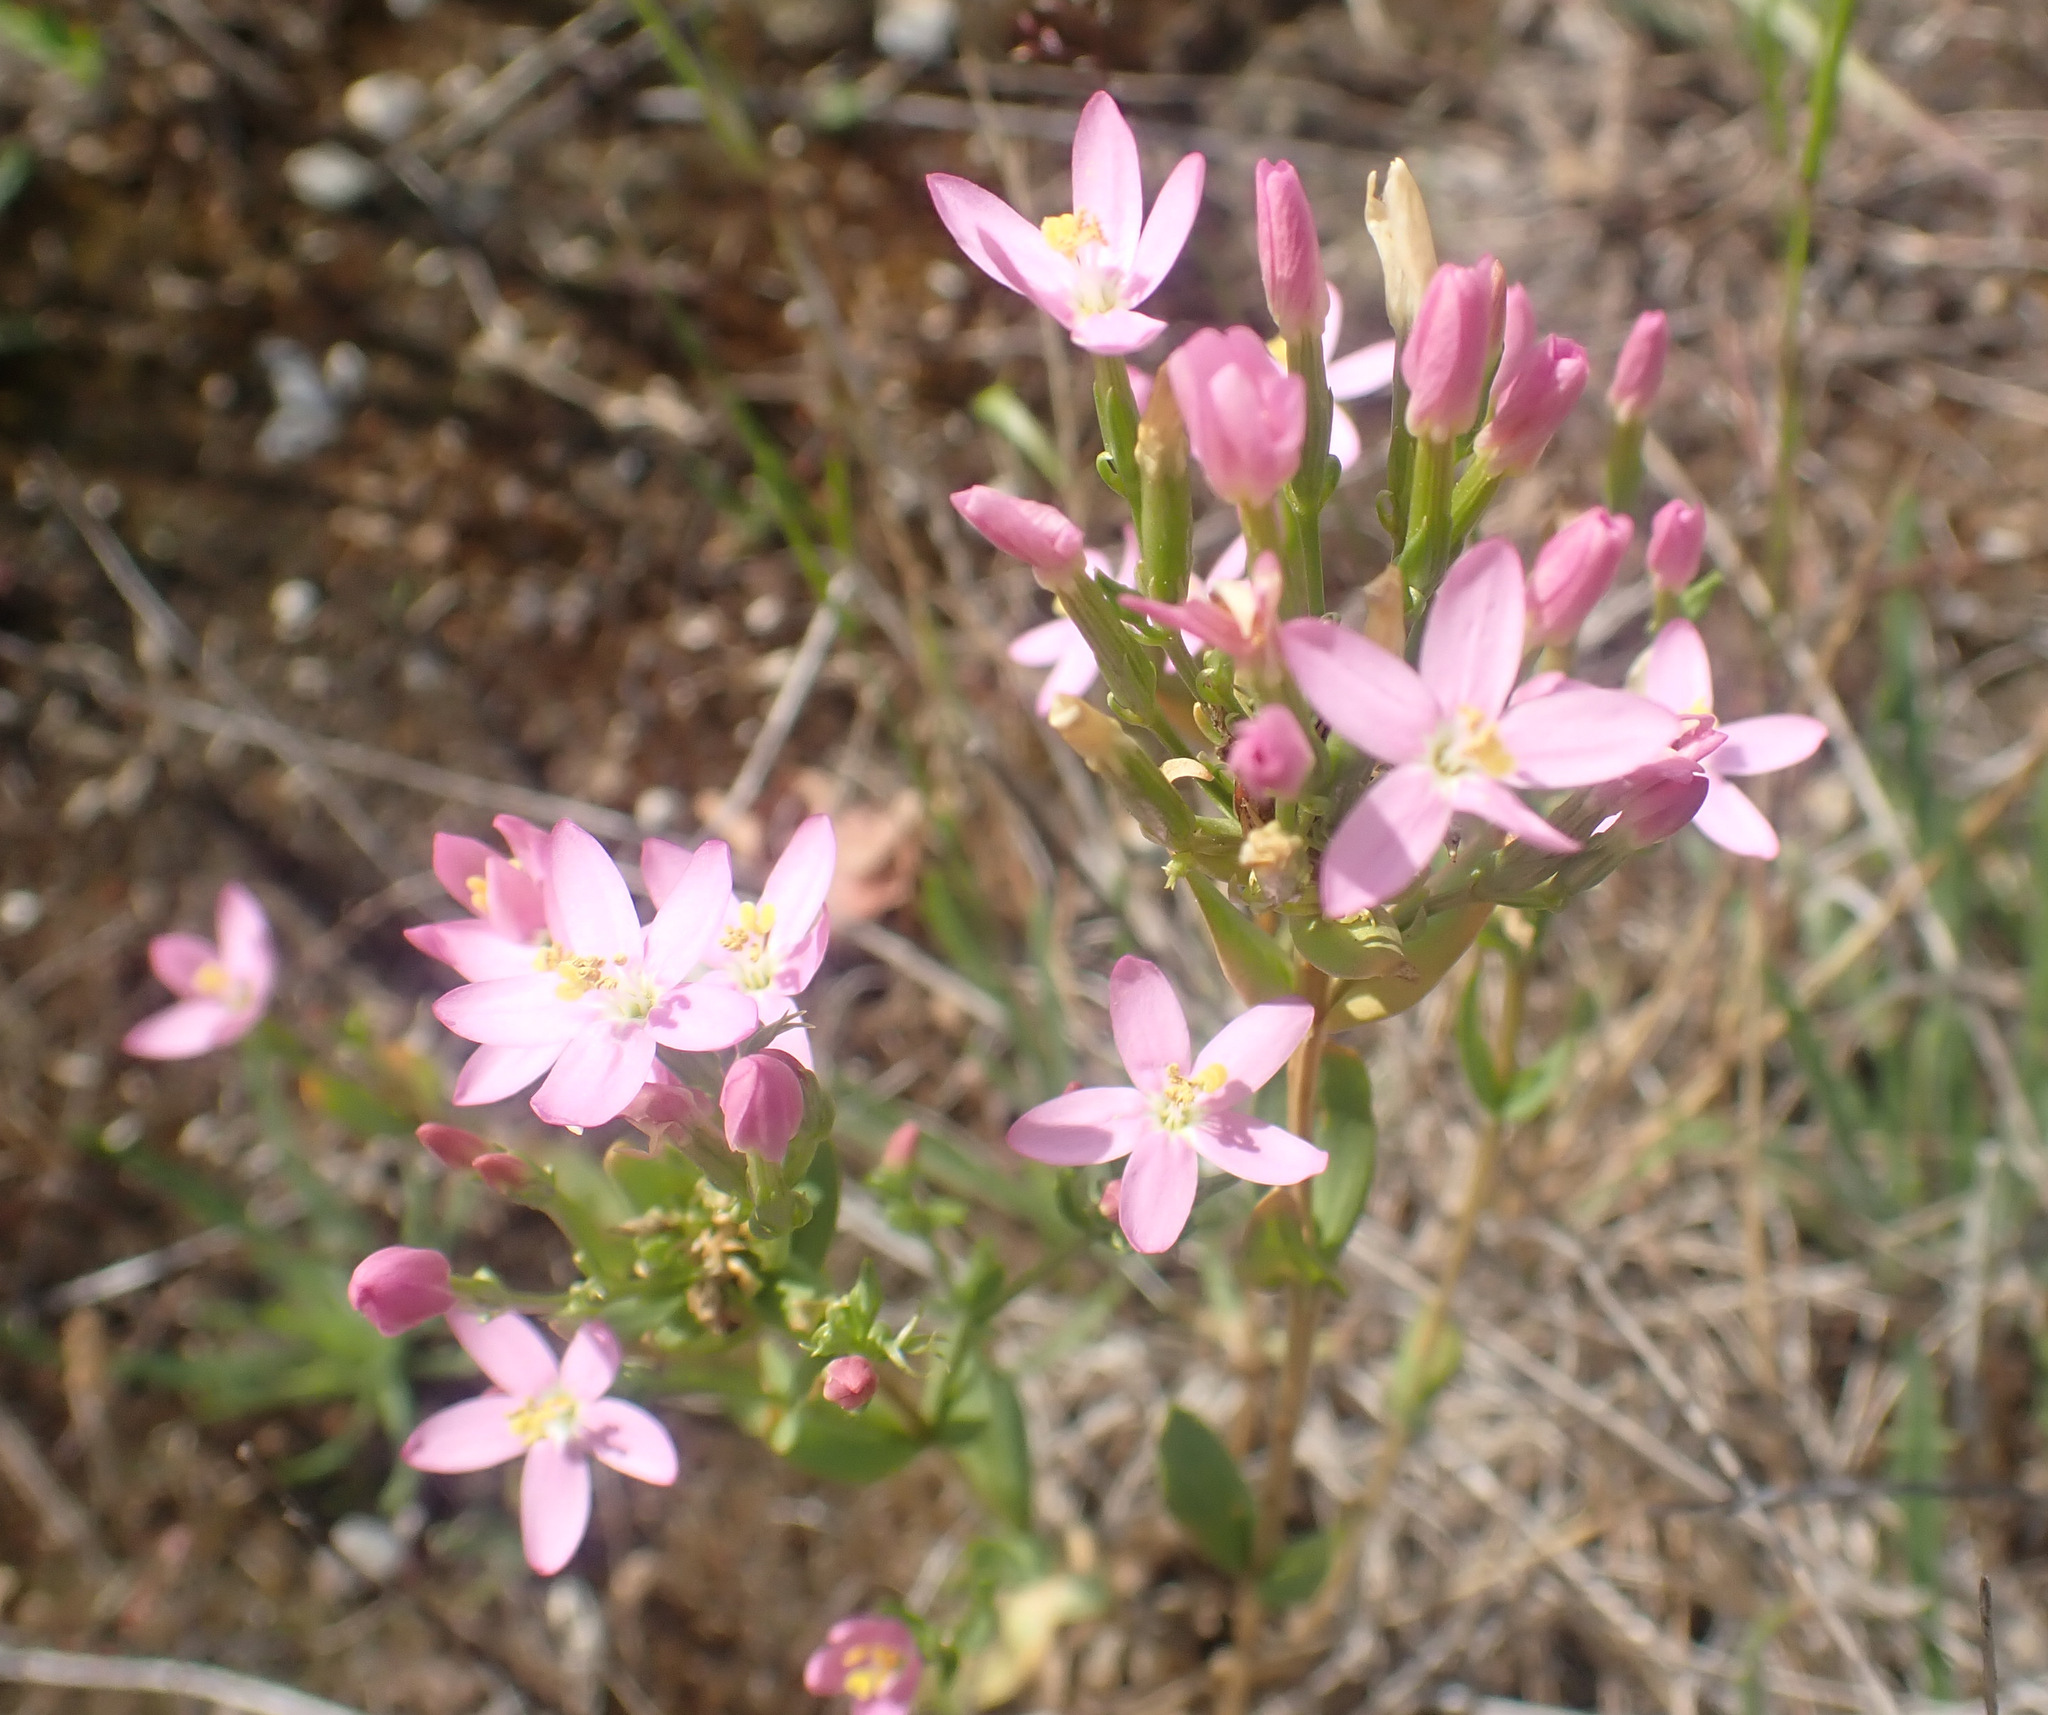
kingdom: Plantae
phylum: Tracheophyta
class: Magnoliopsida
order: Gentianales
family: Gentianaceae
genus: Centaurium
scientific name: Centaurium erythraea
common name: Common centaury
